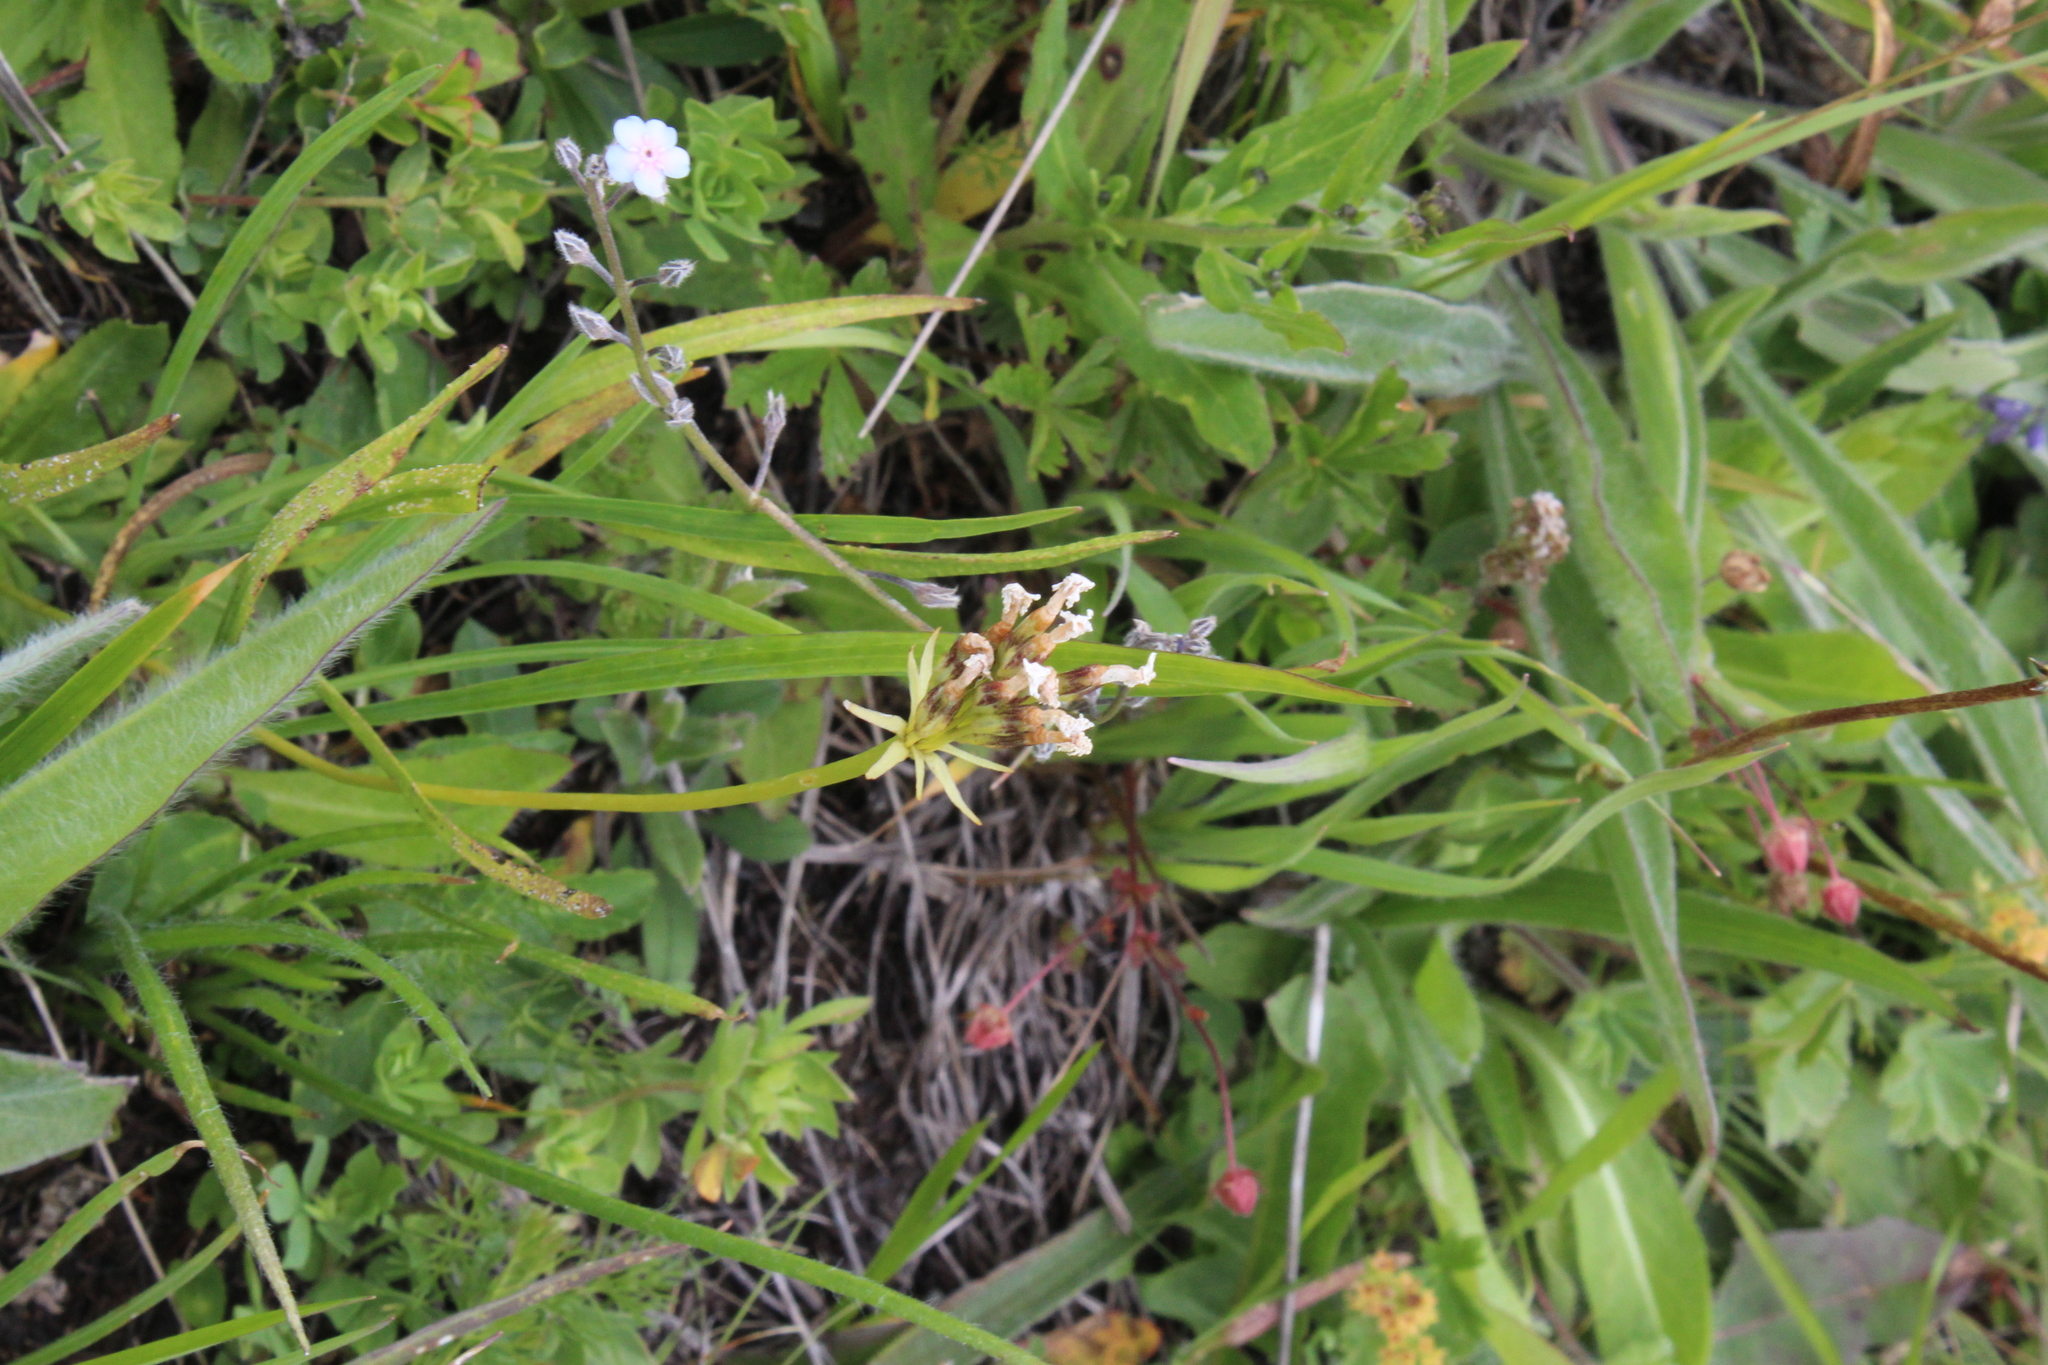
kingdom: Plantae
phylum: Tracheophyta
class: Magnoliopsida
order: Ericales
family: Primulaceae
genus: Primula
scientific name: Primula algida
